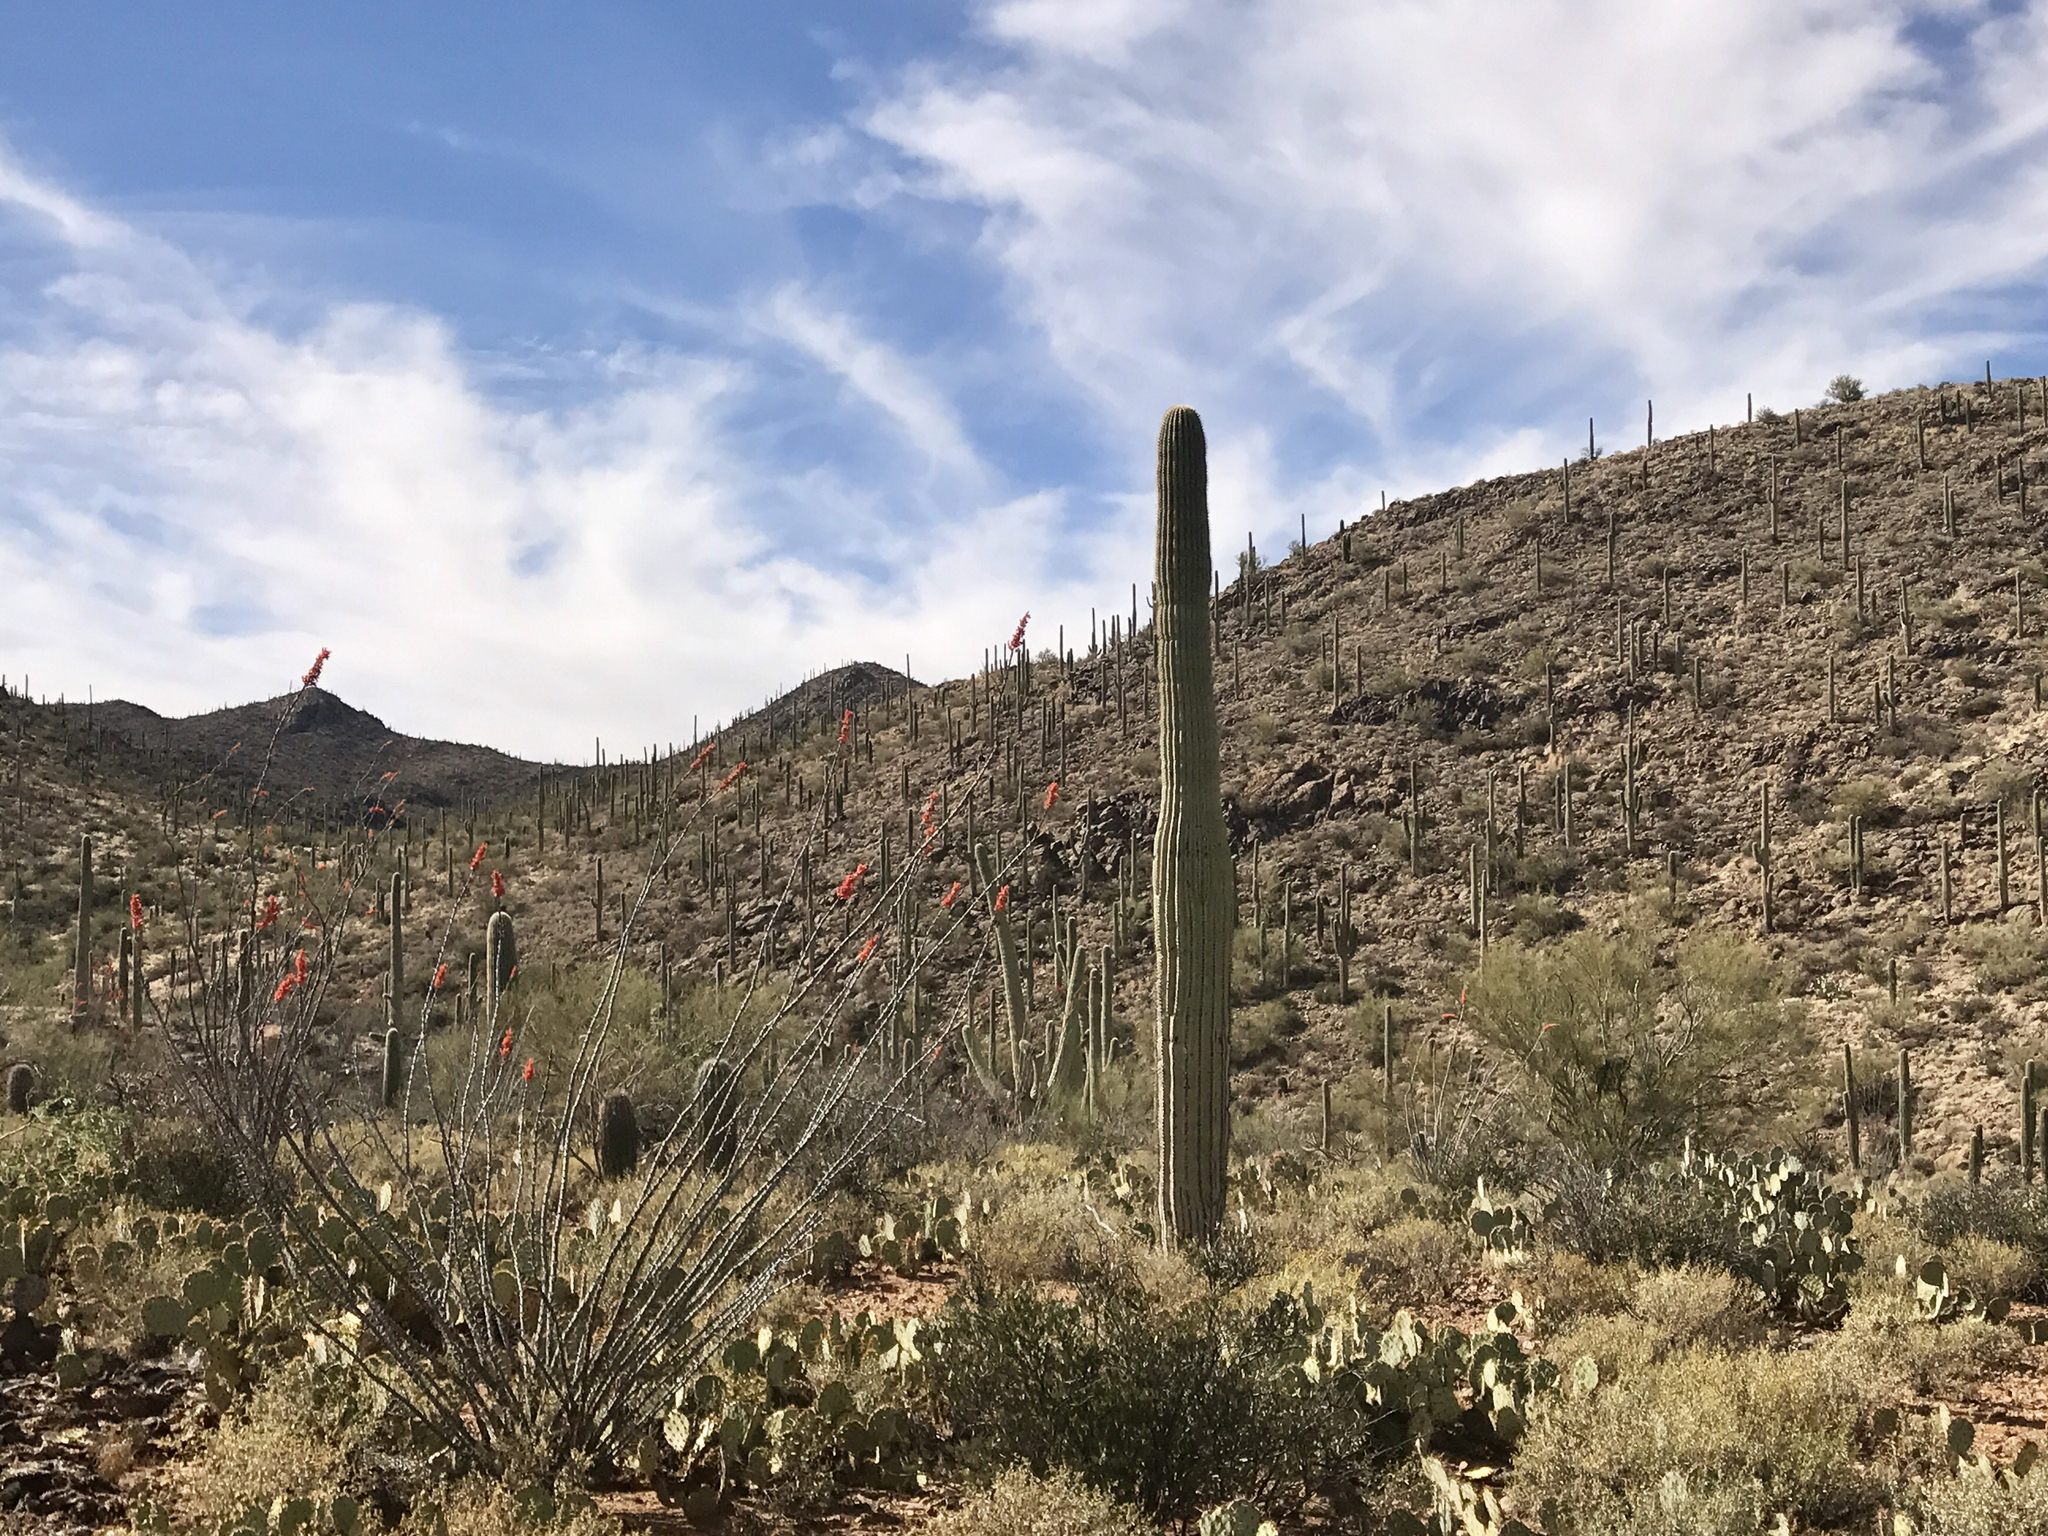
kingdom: Plantae
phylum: Tracheophyta
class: Magnoliopsida
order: Caryophyllales
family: Cactaceae
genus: Carnegiea
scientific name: Carnegiea gigantea
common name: Saguaro
